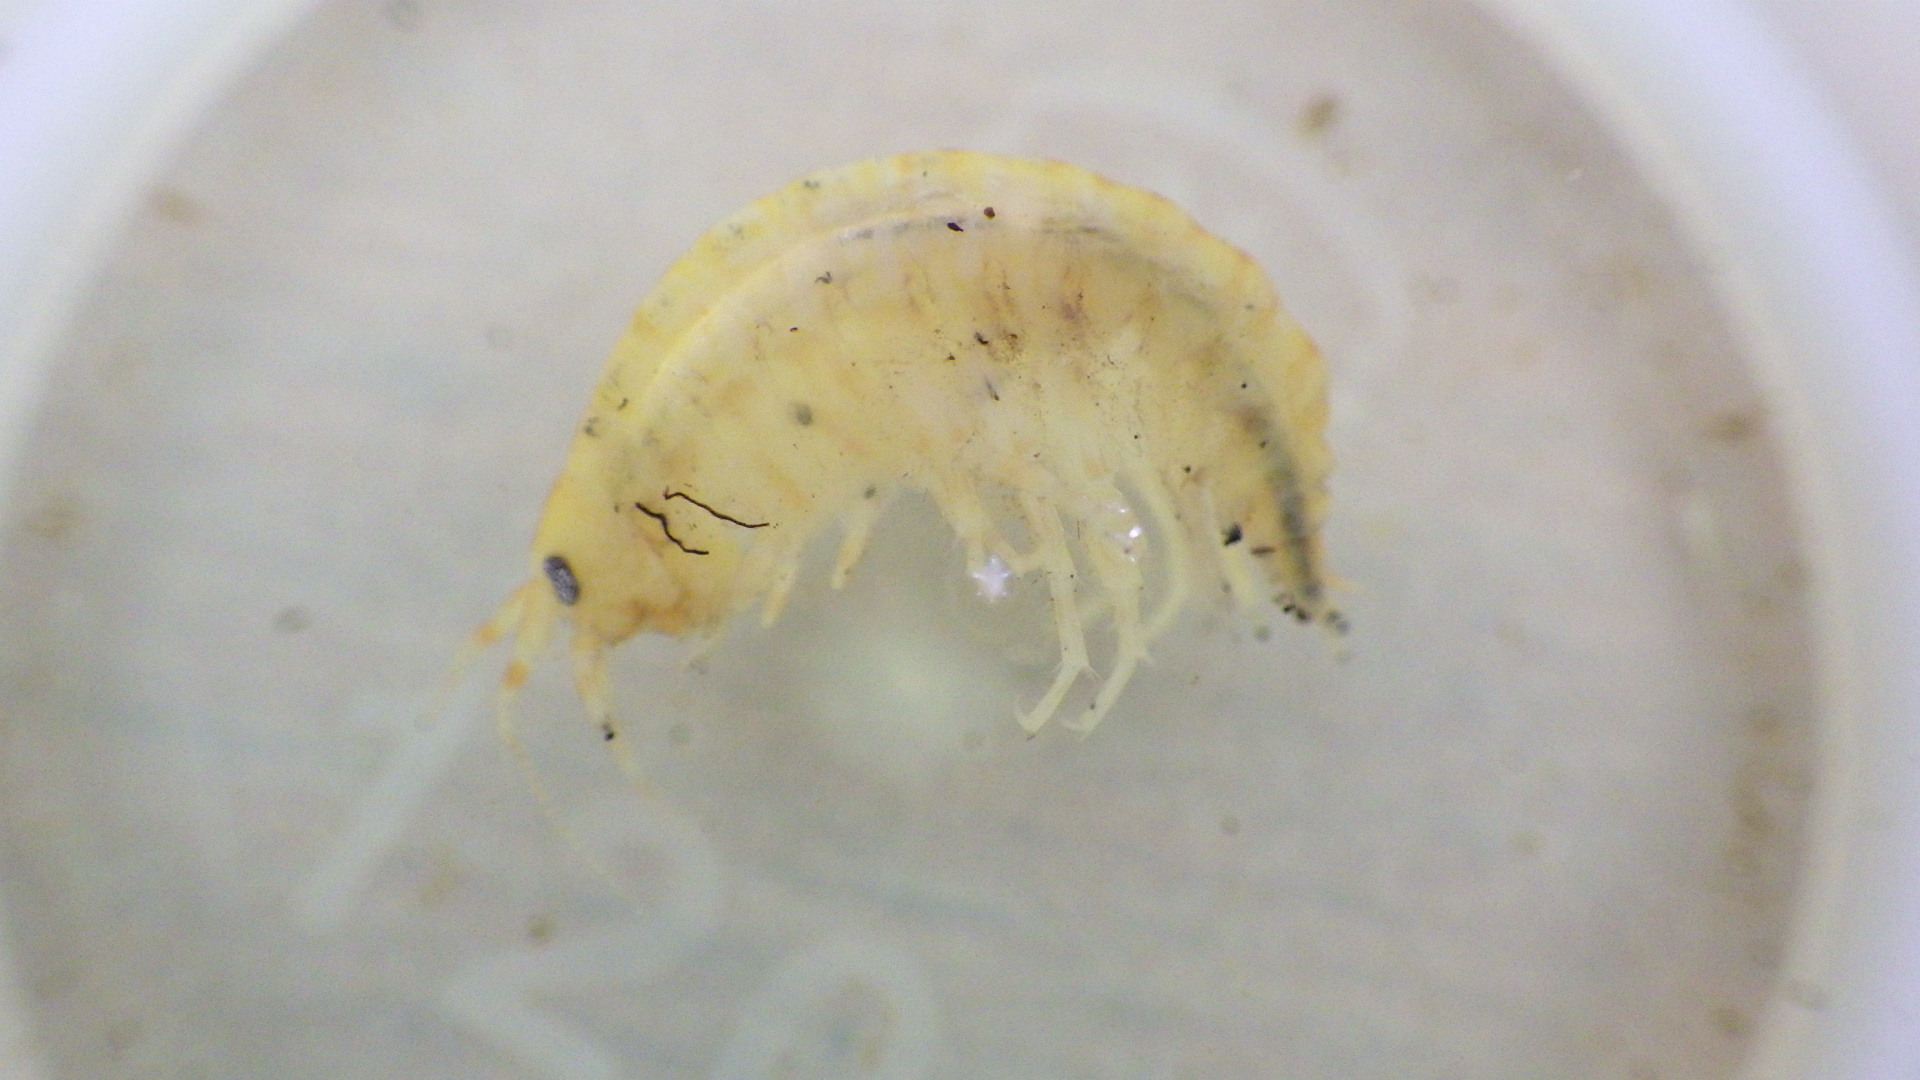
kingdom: Animalia
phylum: Arthropoda
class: Malacostraca
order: Amphipoda
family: Gammaridae
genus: Gammarus
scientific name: Gammarus fasciatus
